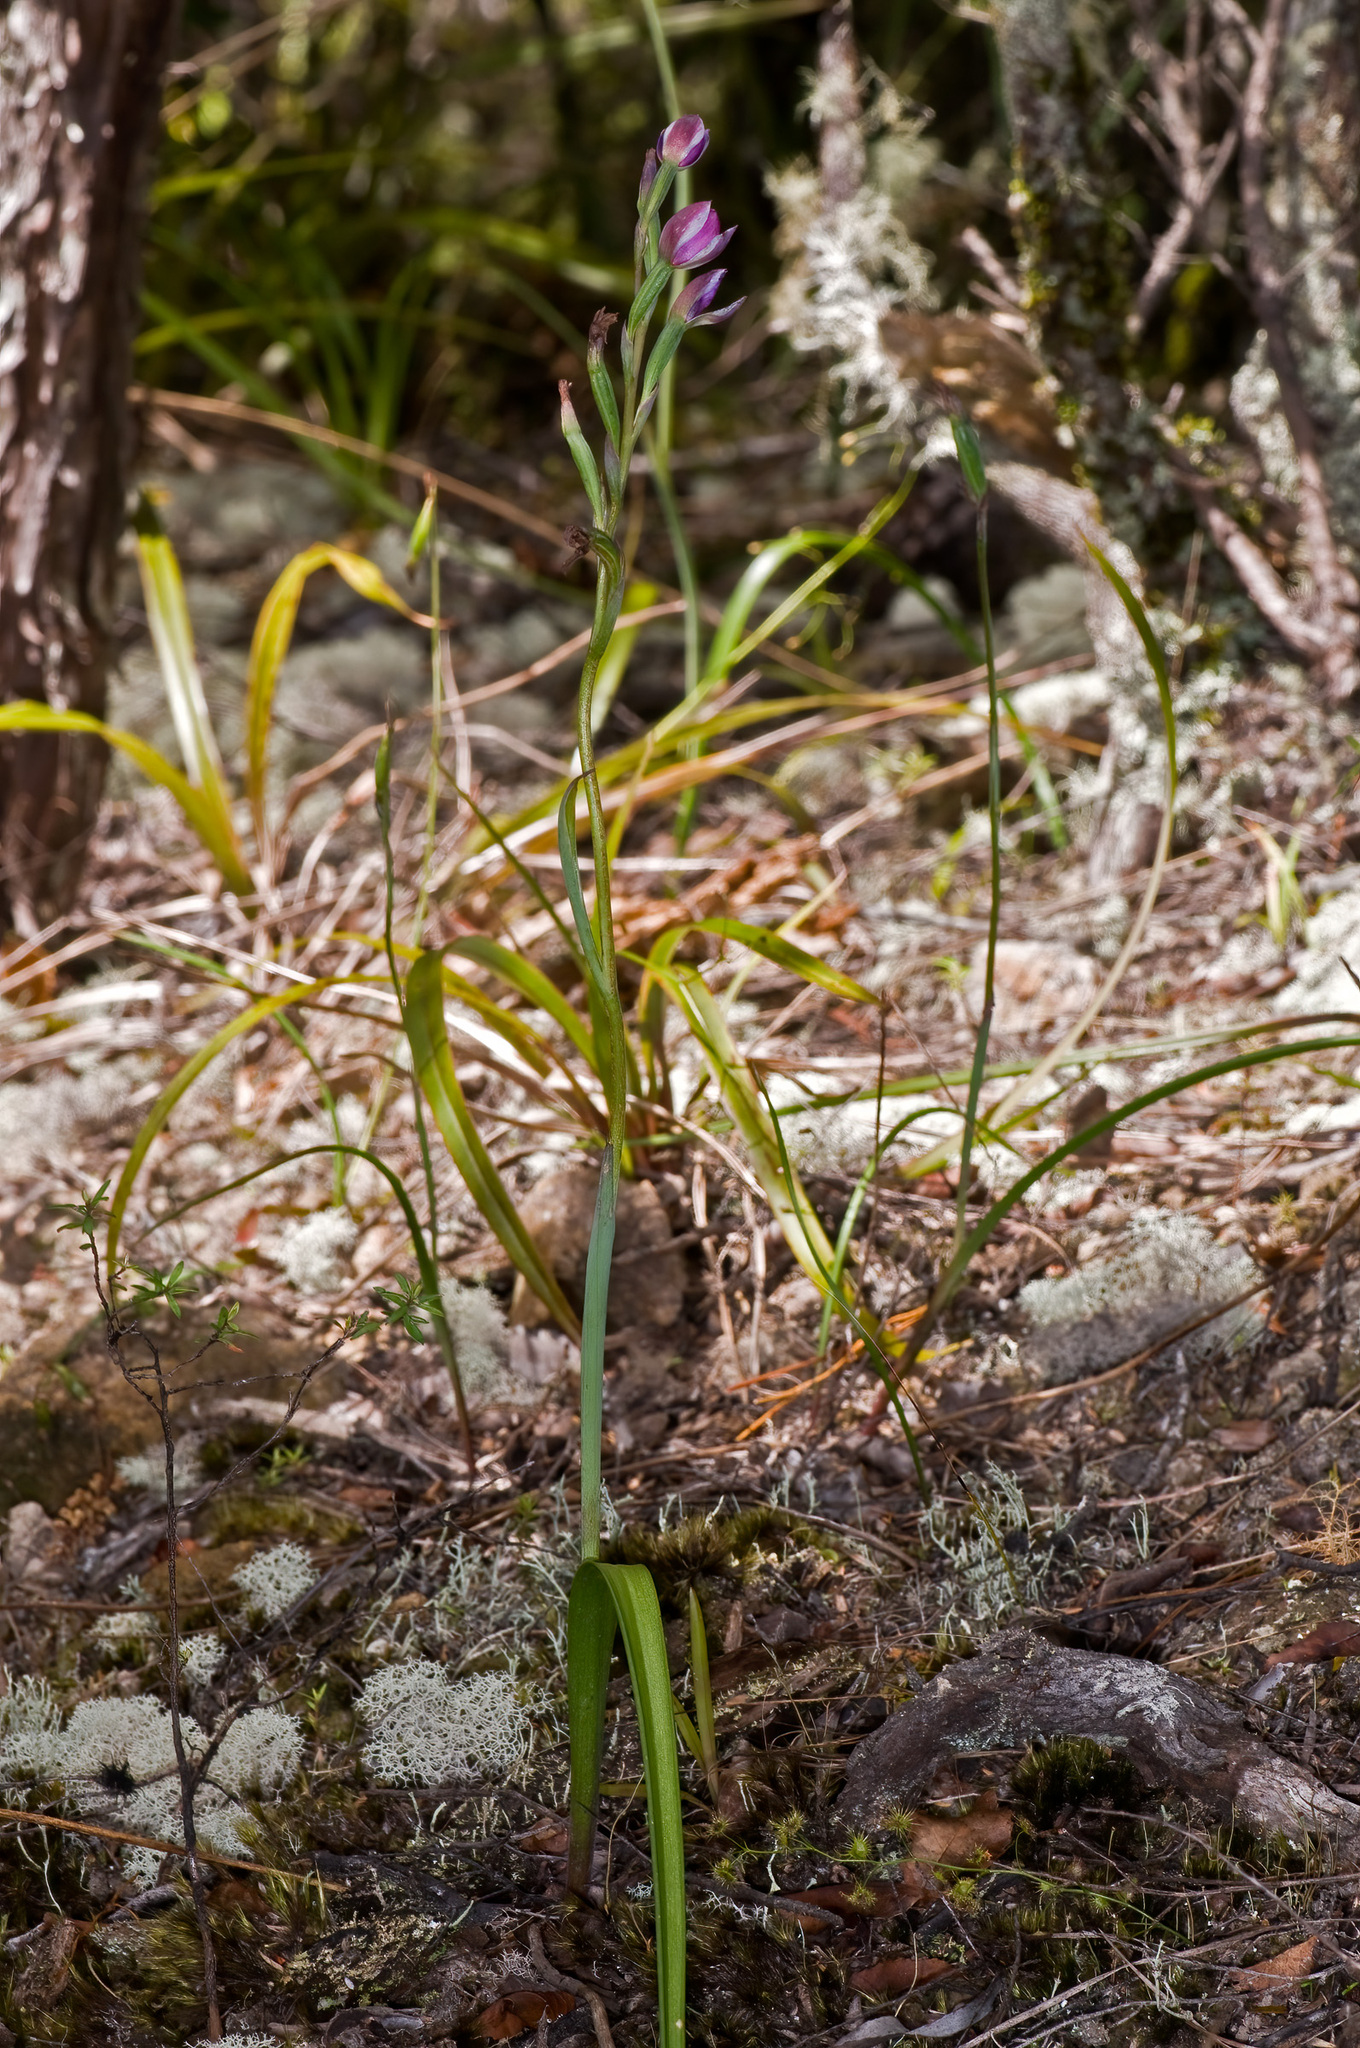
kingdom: Plantae
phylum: Tracheophyta
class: Liliopsida
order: Asparagales
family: Orchidaceae
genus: Thelymitra
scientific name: Thelymitra nervosa
